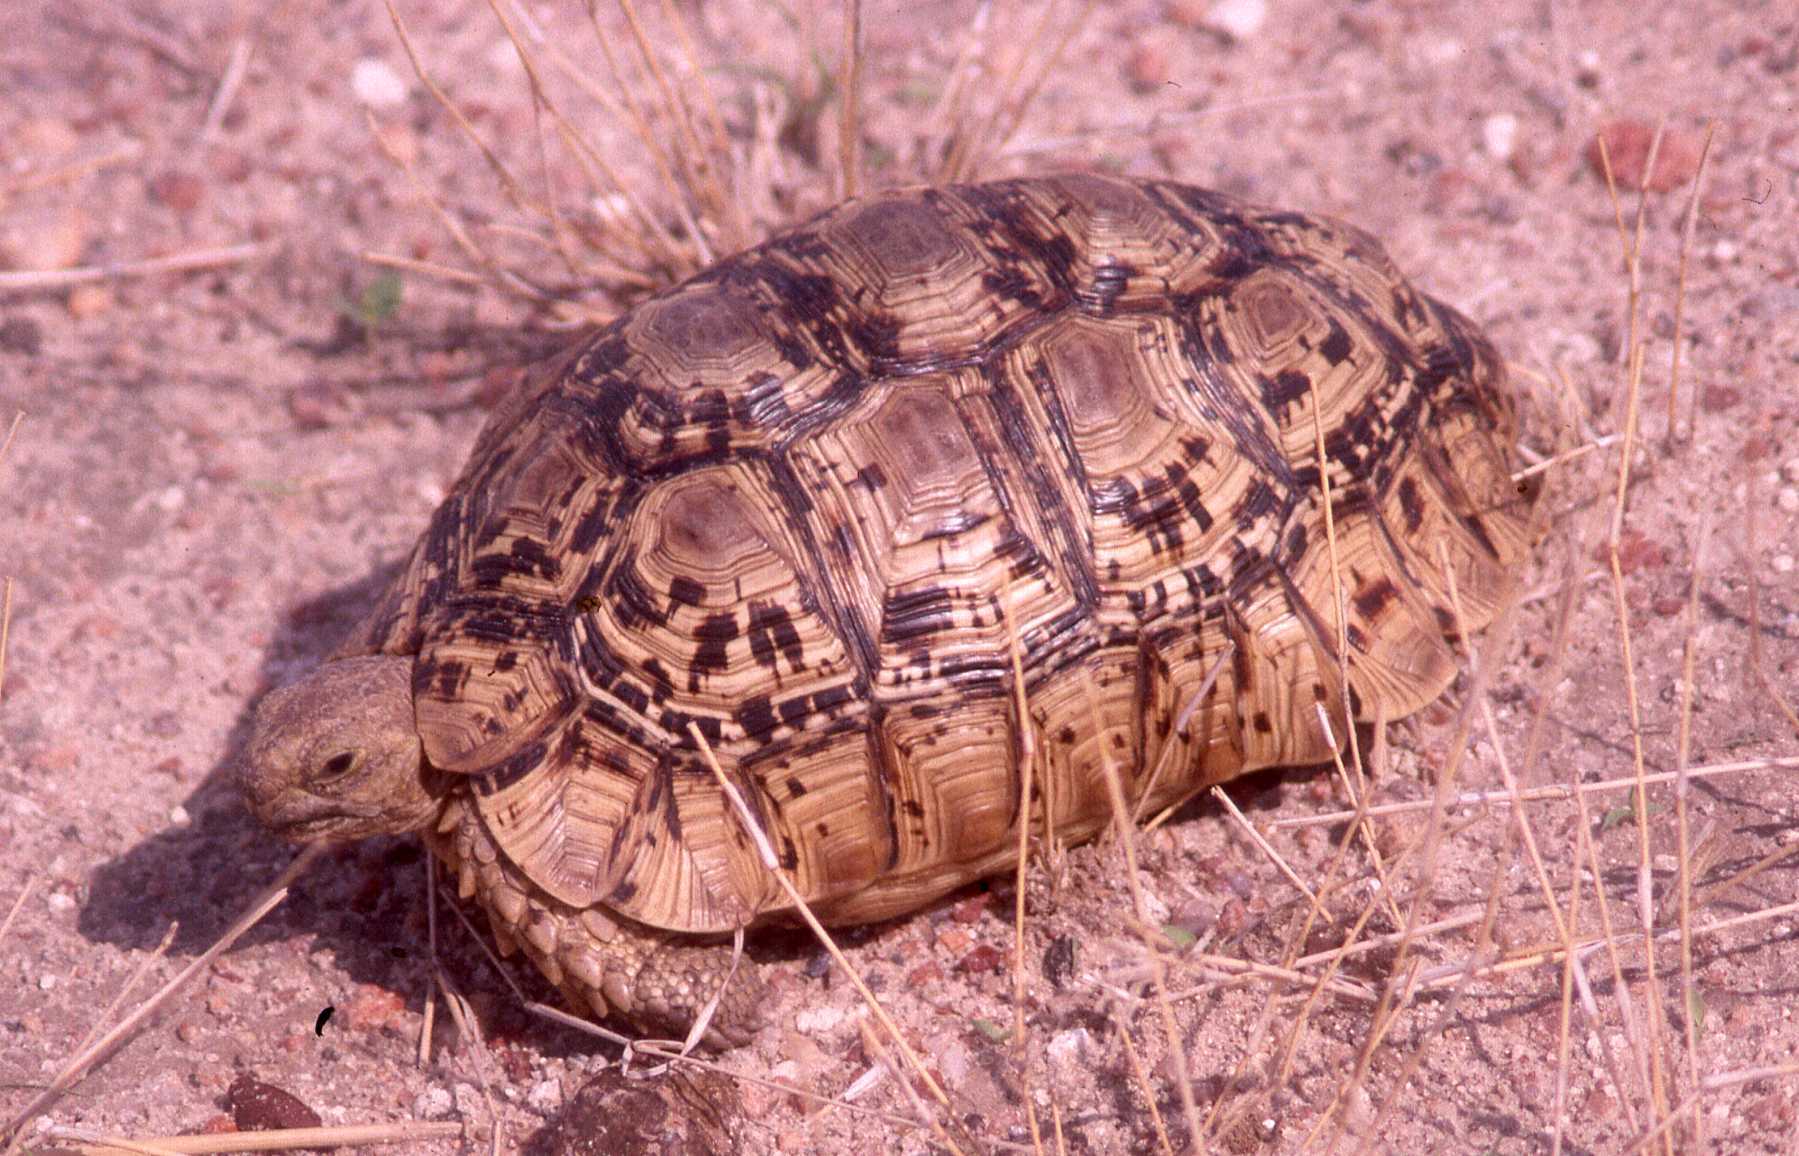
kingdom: Animalia
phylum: Chordata
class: Testudines
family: Testudinidae
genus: Stigmochelys
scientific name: Stigmochelys pardalis
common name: Leopard tortoise
